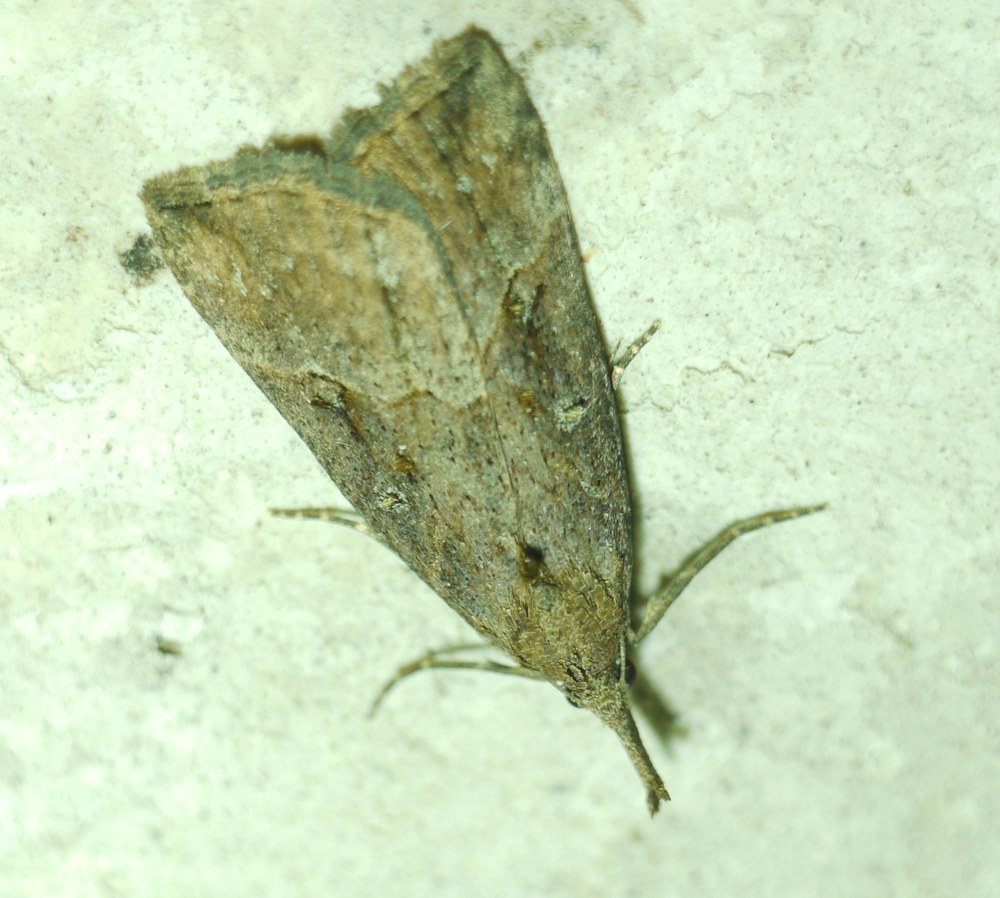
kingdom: Animalia
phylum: Arthropoda
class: Insecta
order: Lepidoptera
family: Erebidae
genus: Hypena
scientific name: Hypena rostralis
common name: Buttoned snout
